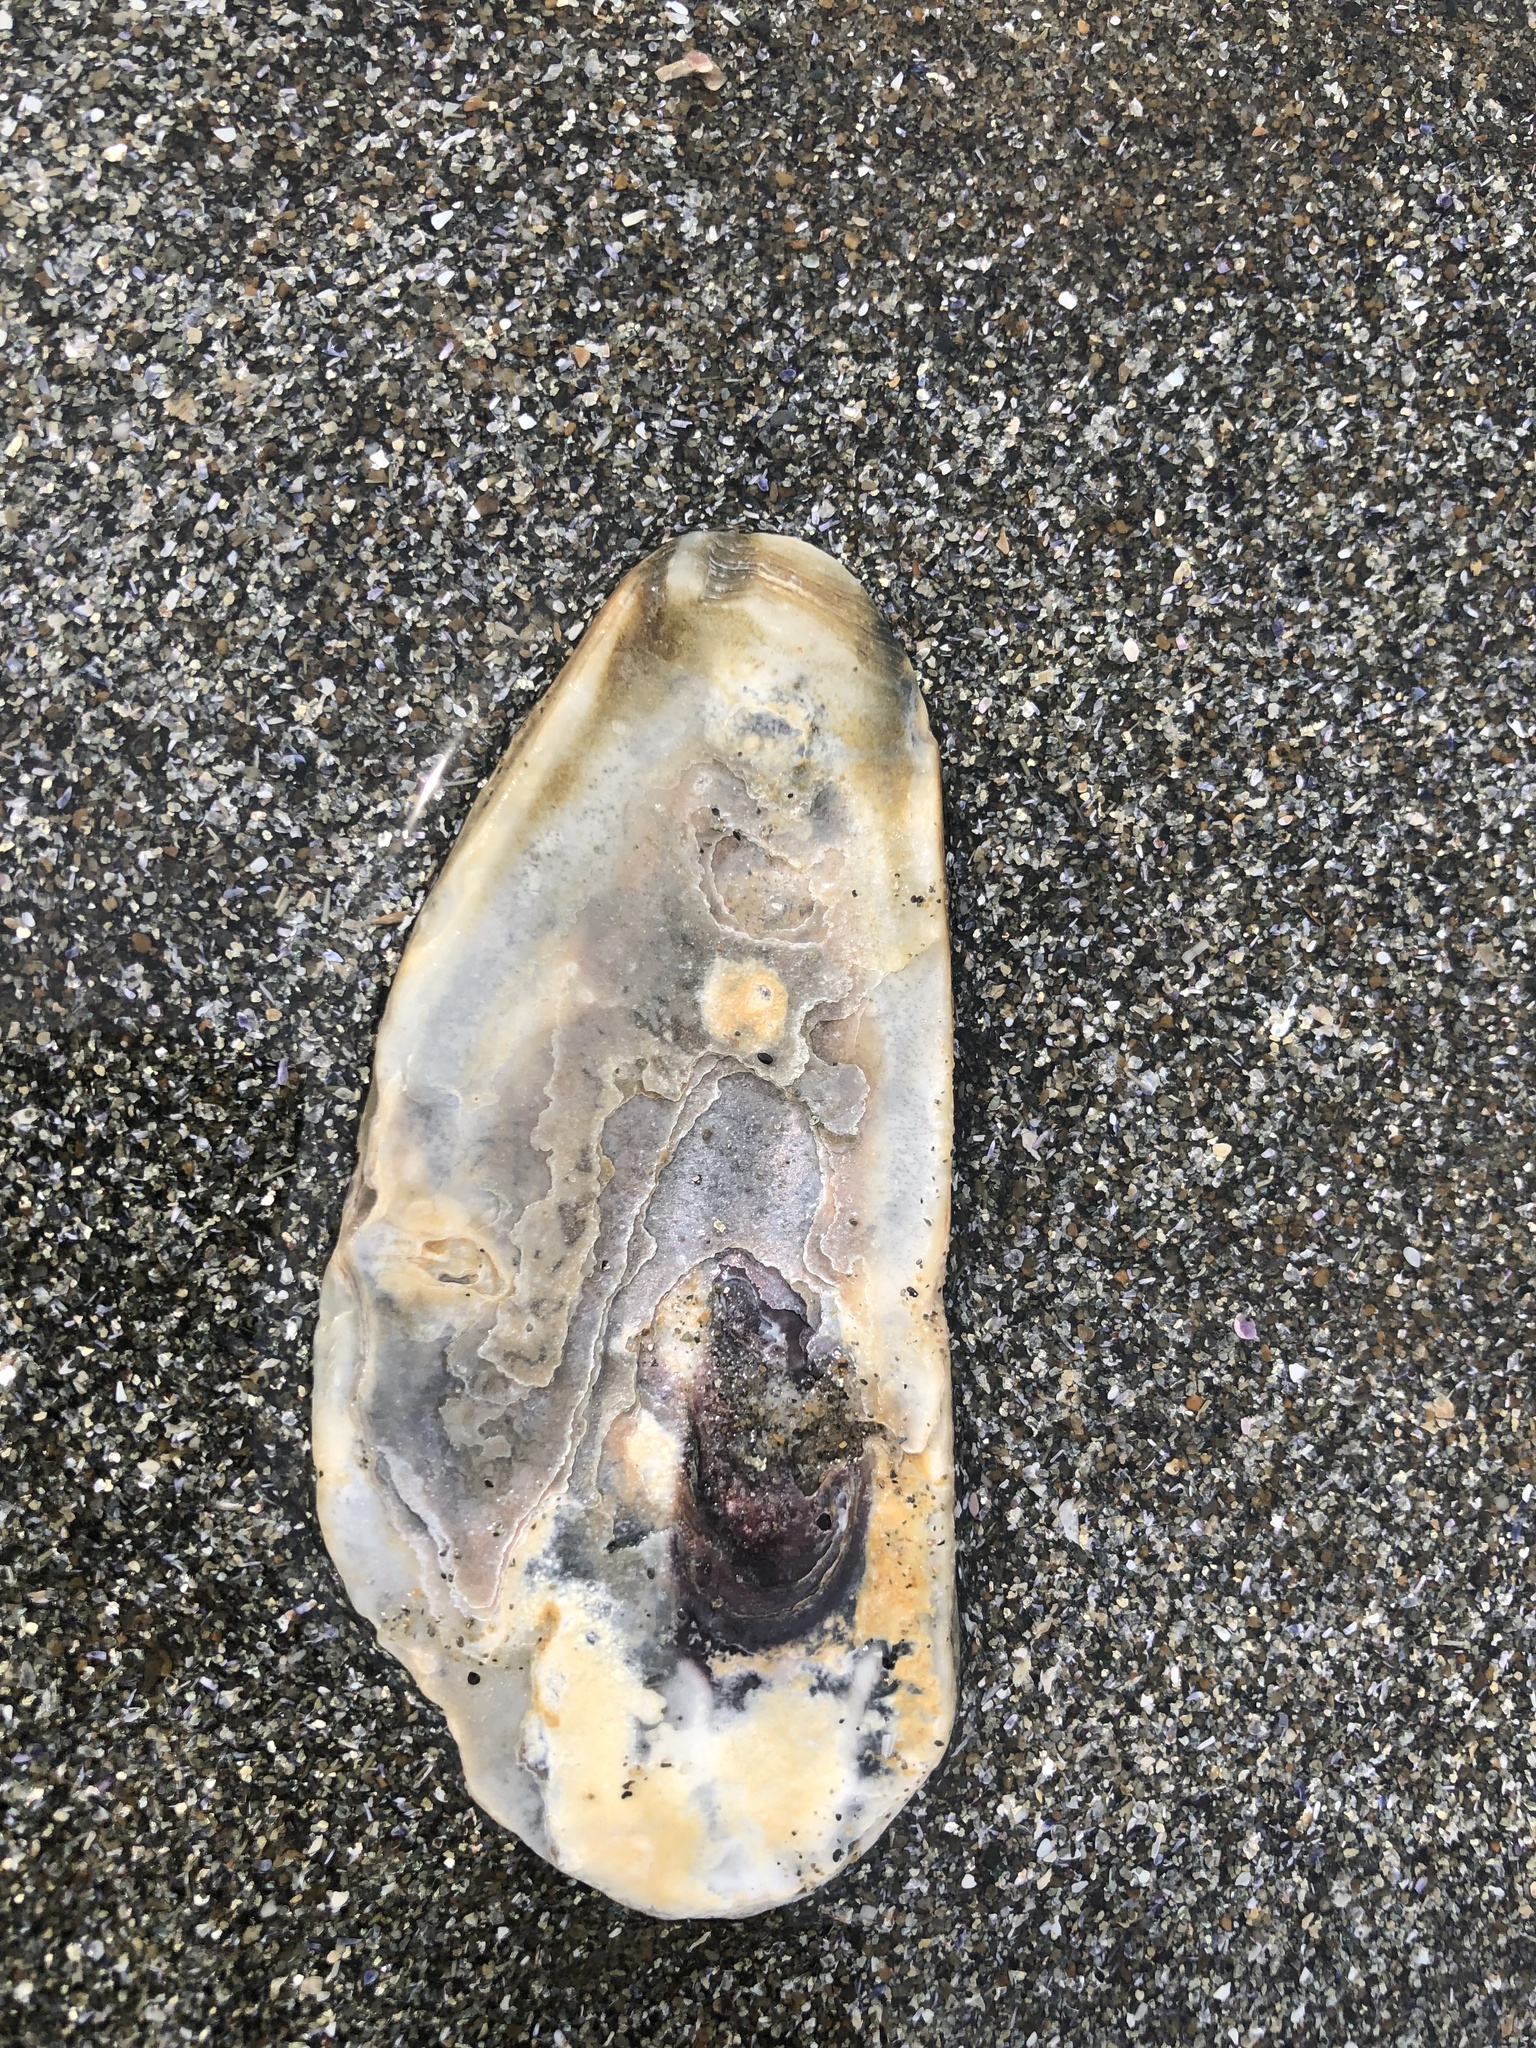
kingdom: Animalia
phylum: Mollusca
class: Bivalvia
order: Ostreida
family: Ostreidae
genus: Crassostrea
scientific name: Crassostrea virginica
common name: American oyster
